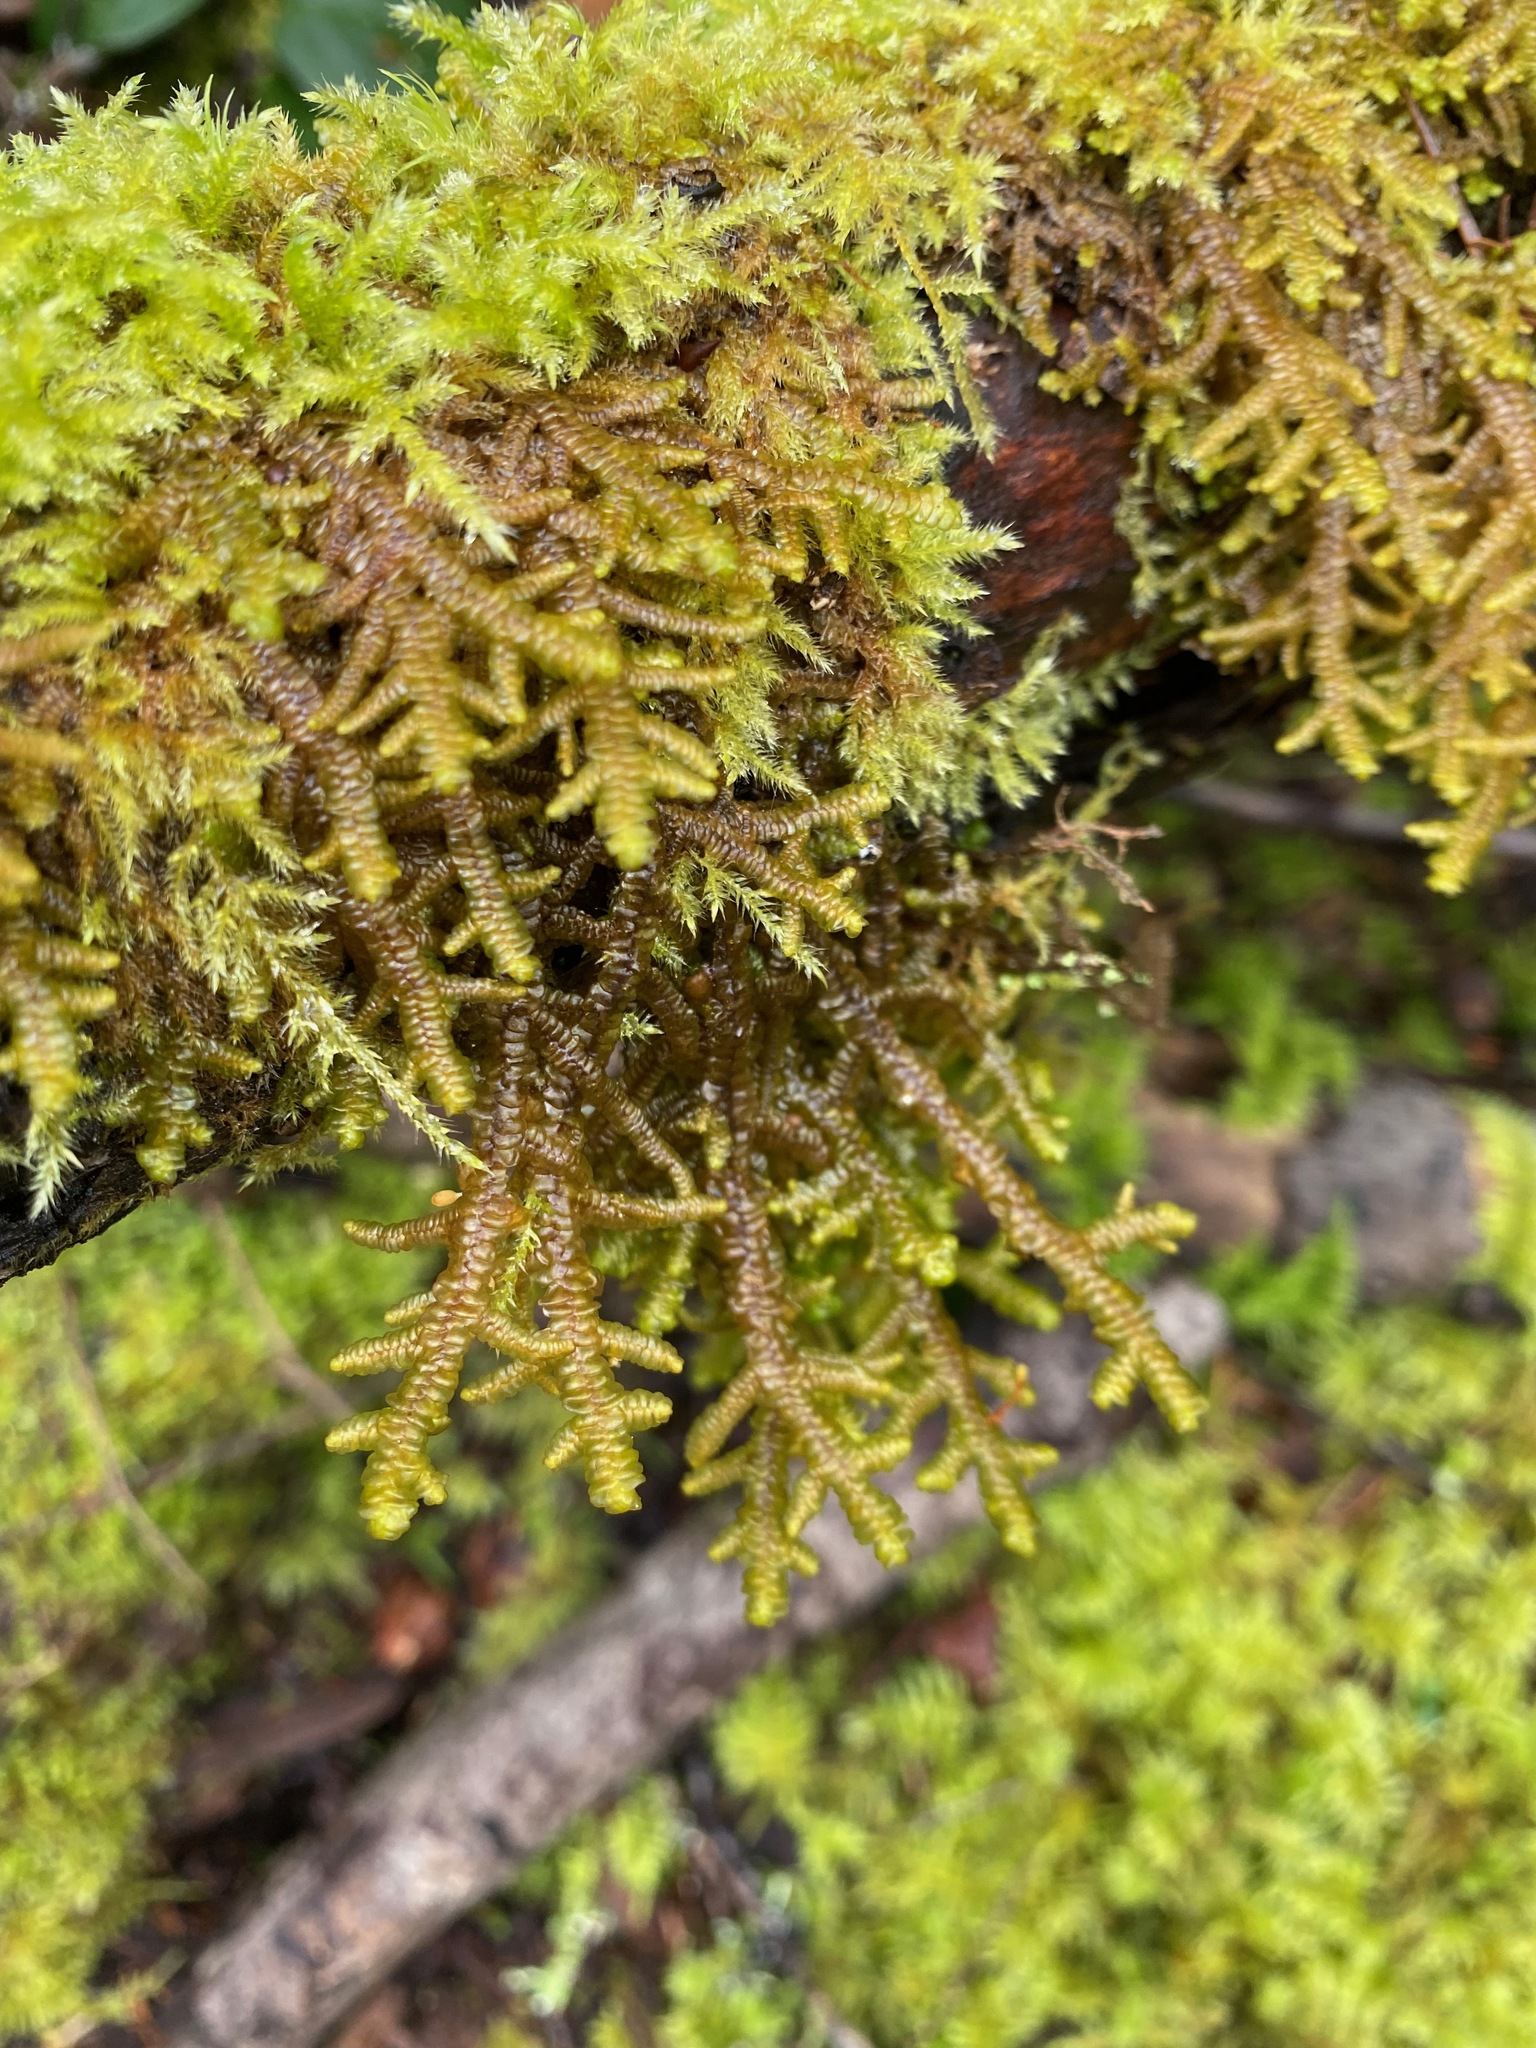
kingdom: Plantae
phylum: Marchantiophyta
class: Jungermanniopsida
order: Porellales
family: Porellaceae
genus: Porella
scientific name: Porella navicularis
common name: Tree ruffle liverwort
